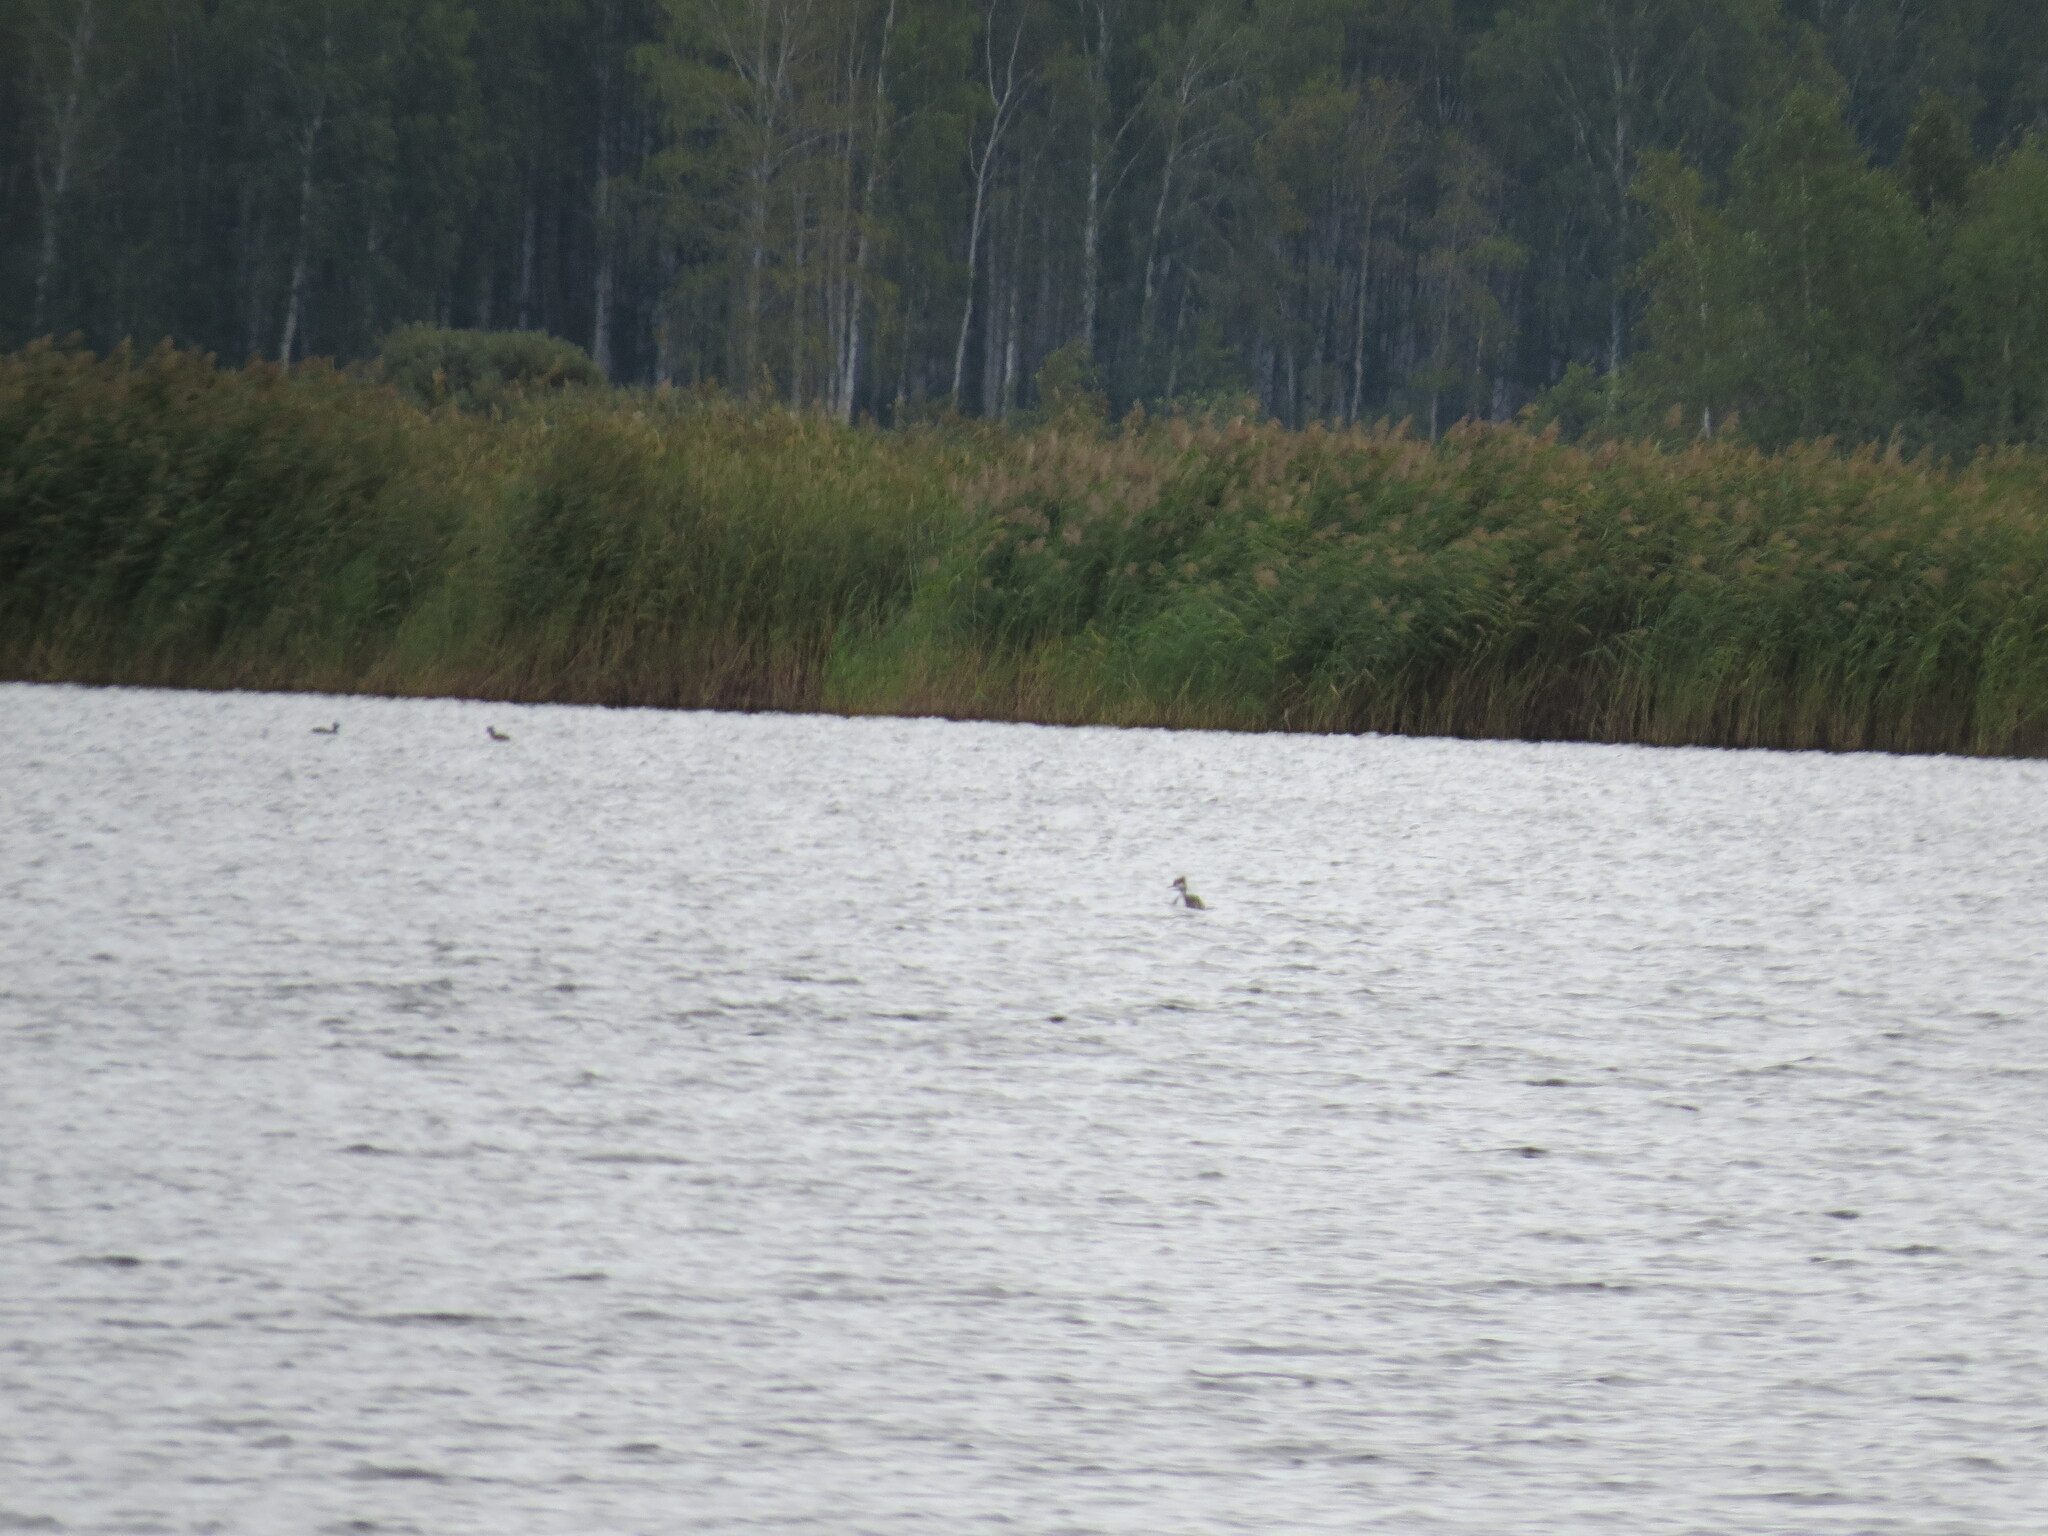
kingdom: Animalia
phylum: Chordata
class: Aves
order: Podicipediformes
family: Podicipedidae
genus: Podiceps
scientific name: Podiceps cristatus
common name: Great crested grebe
